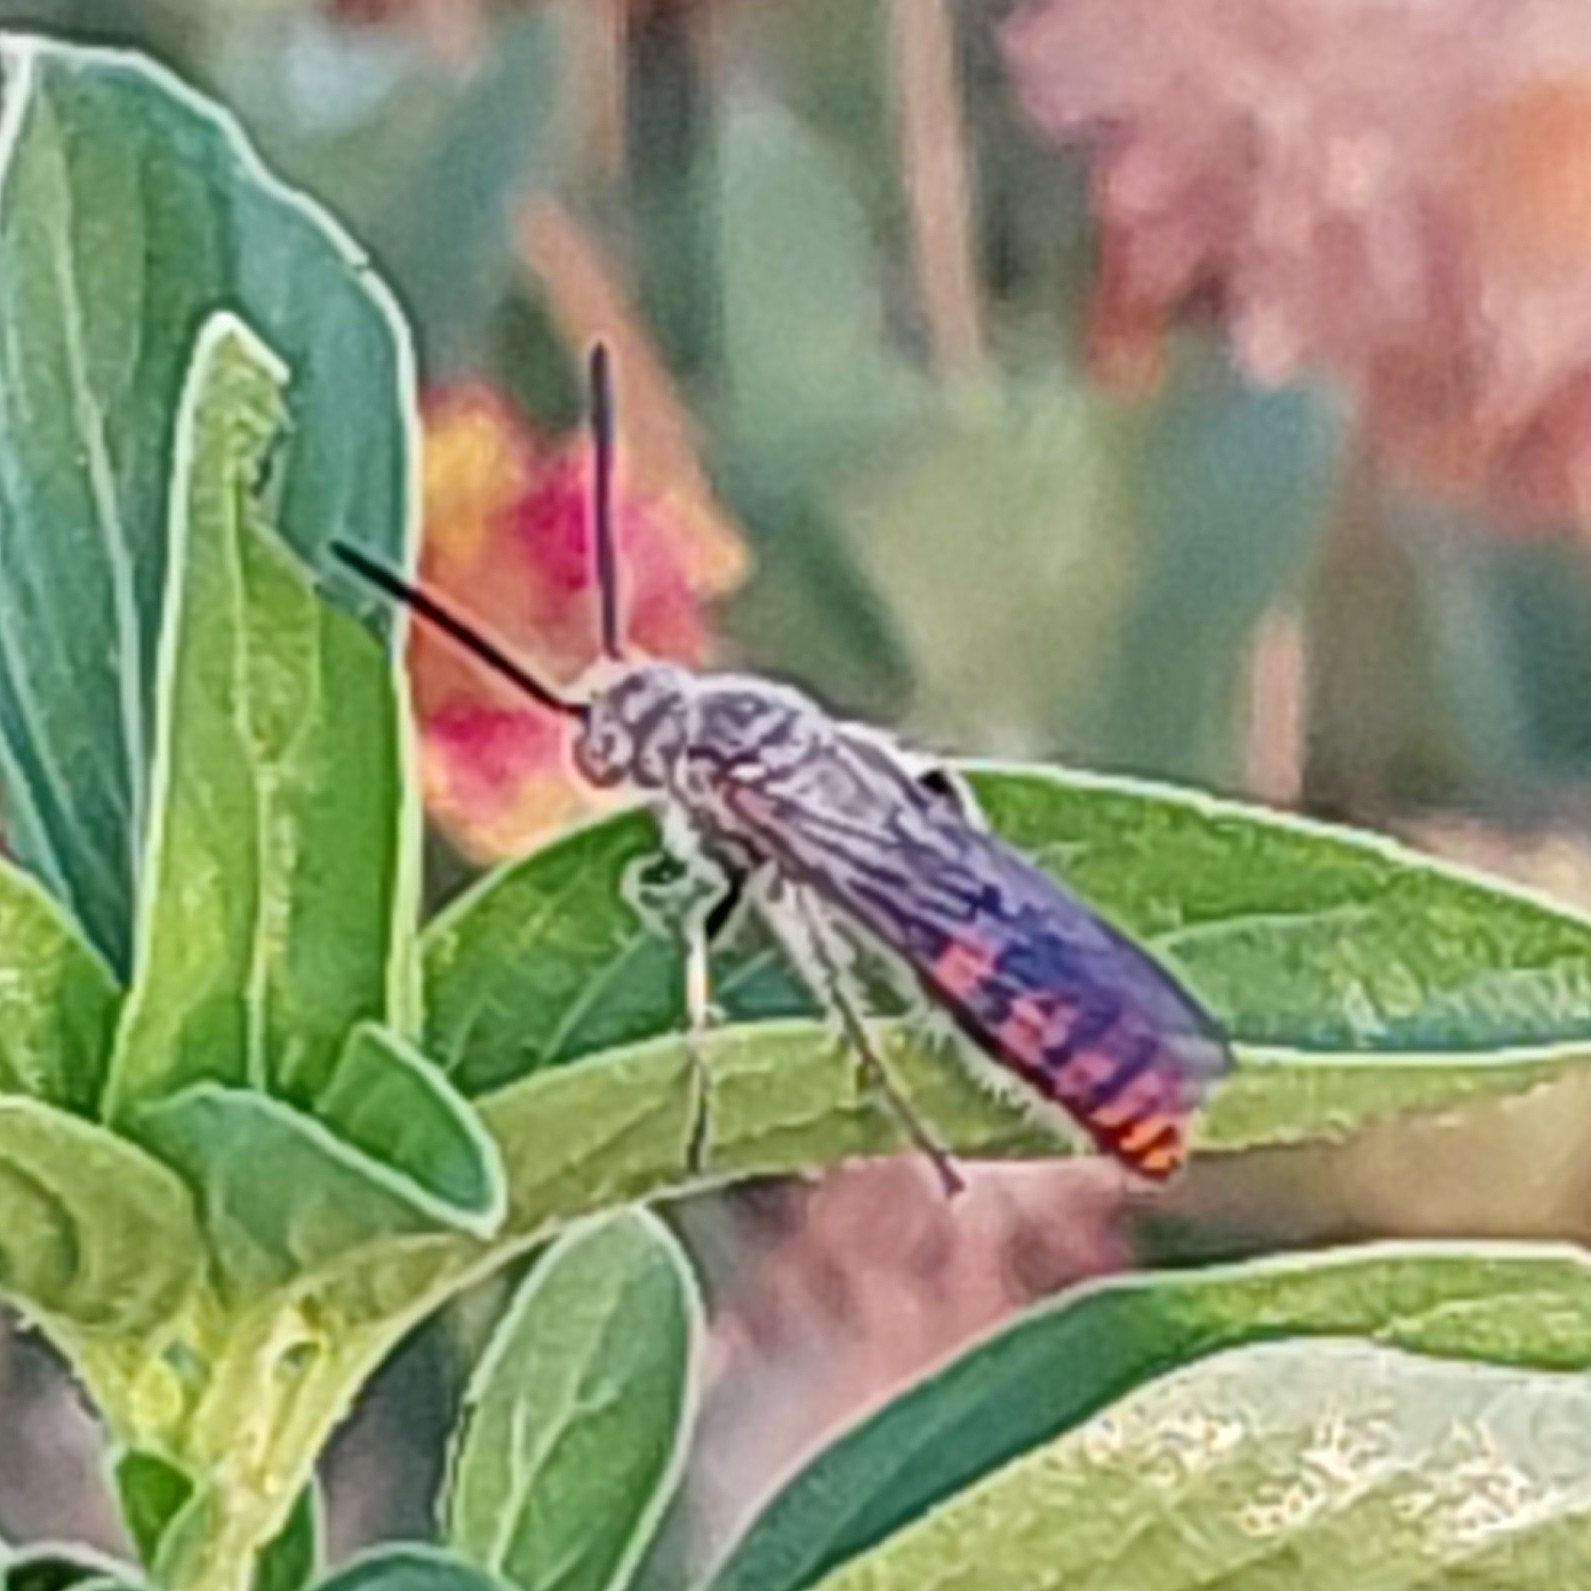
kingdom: Animalia
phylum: Arthropoda
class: Insecta
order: Hymenoptera
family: Scoliidae
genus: Campsomeriella
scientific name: Campsomeriella thoracica
